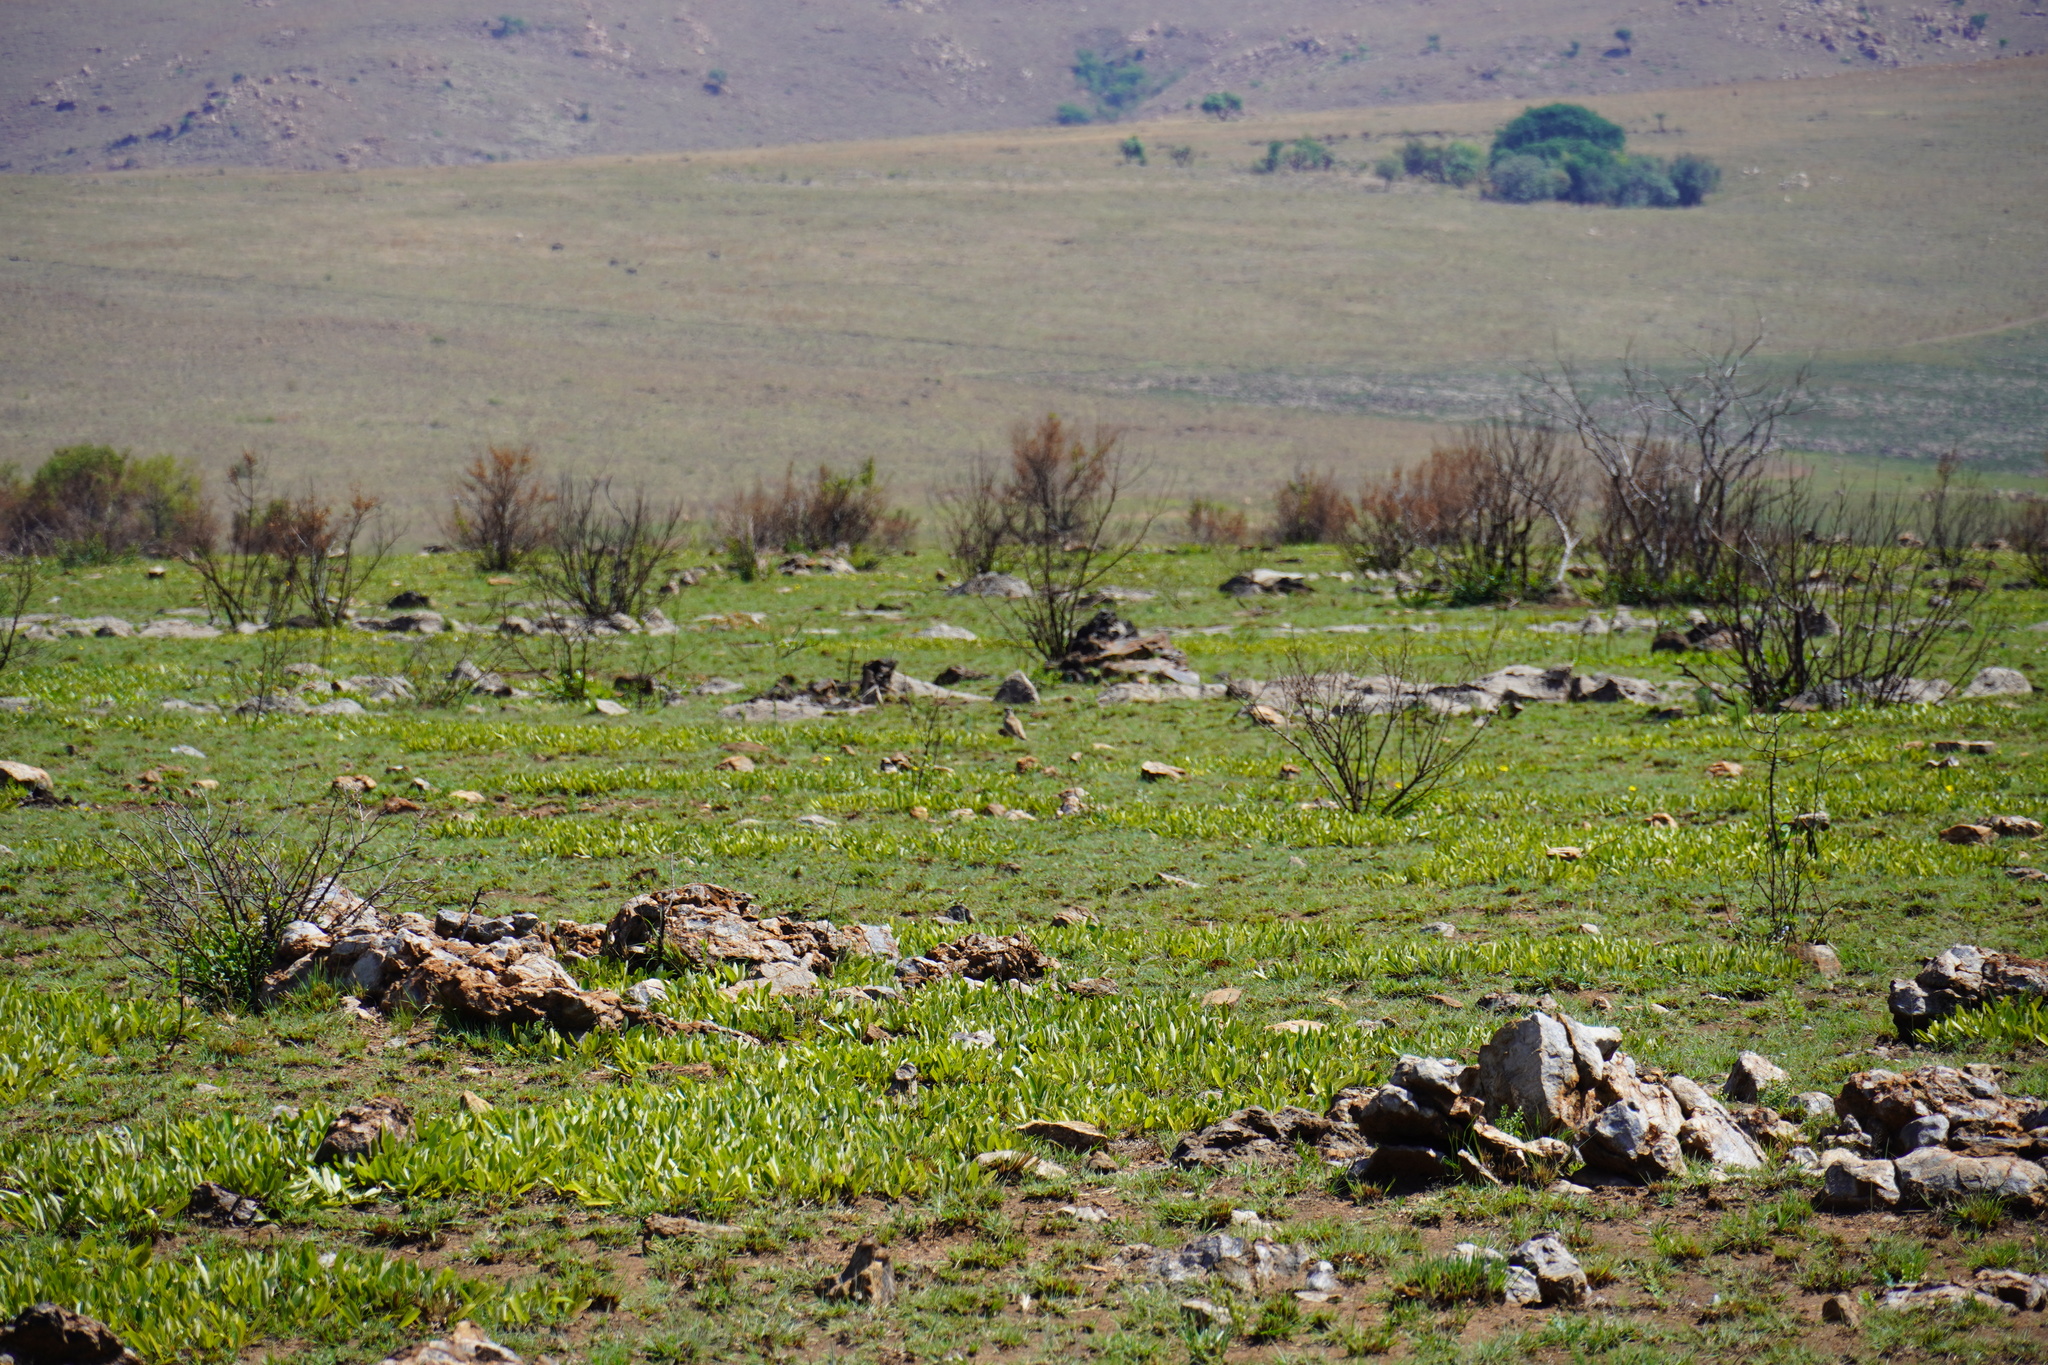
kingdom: Plantae
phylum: Tracheophyta
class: Magnoliopsida
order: Malpighiales
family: Chrysobalanaceae
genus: Parinari
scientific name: Parinari capensis
